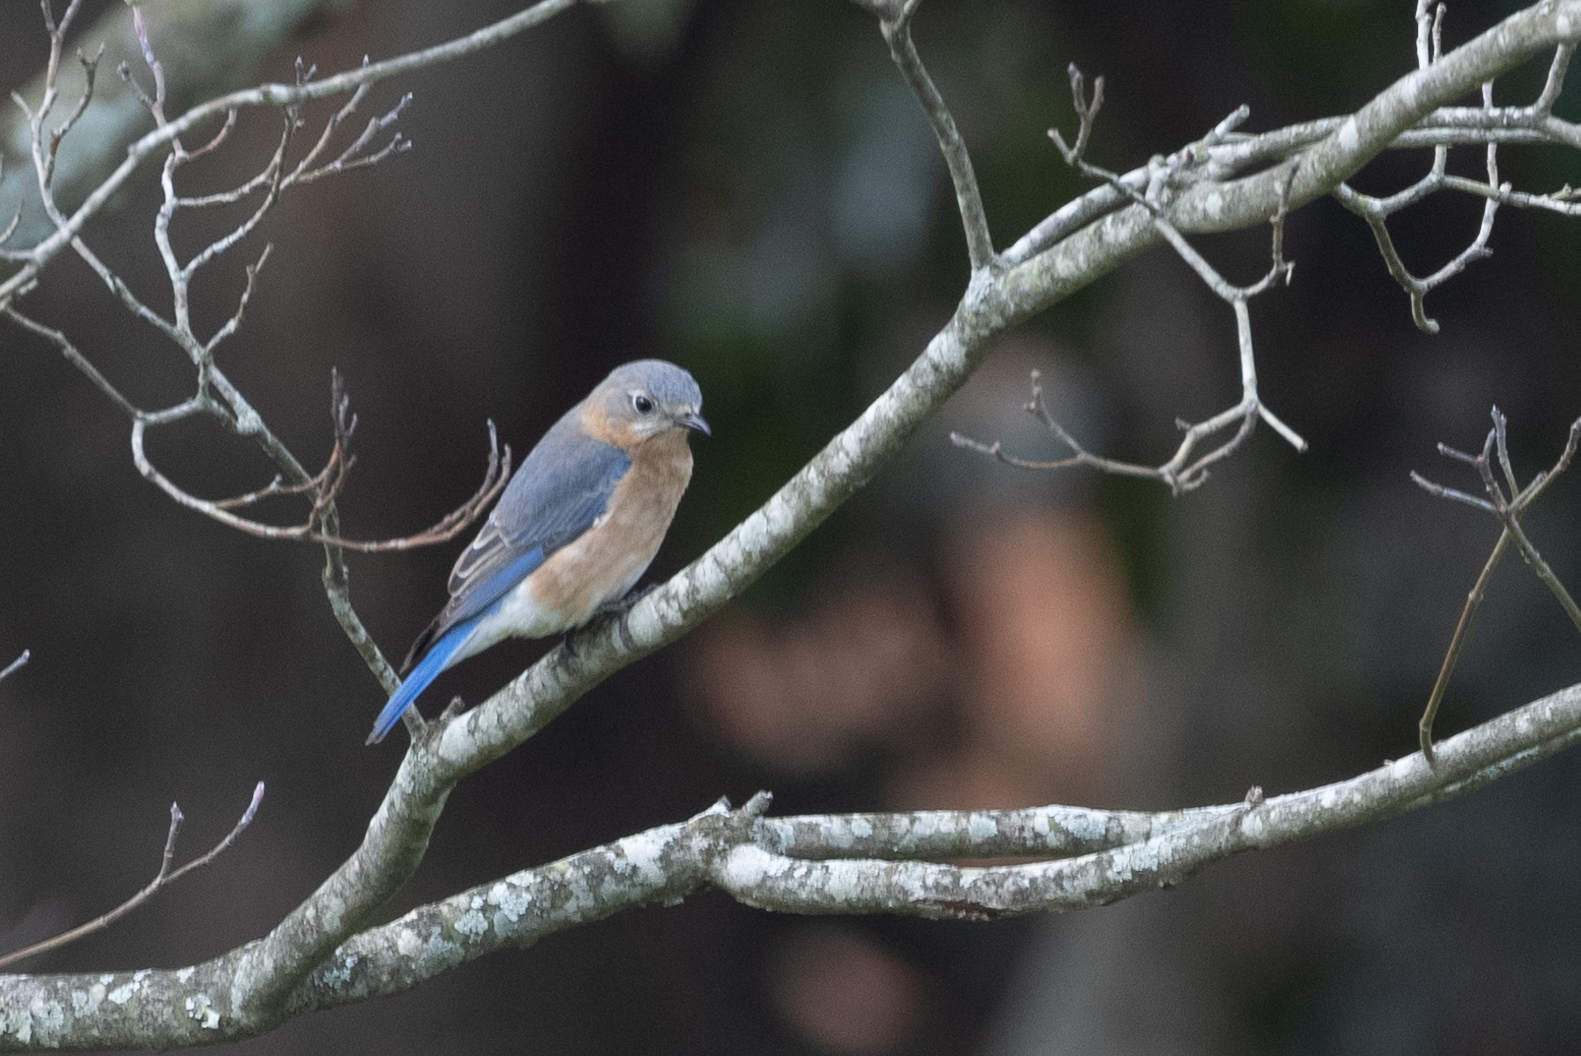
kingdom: Animalia
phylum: Chordata
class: Aves
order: Passeriformes
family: Turdidae
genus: Sialia
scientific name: Sialia sialis
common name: Eastern bluebird
